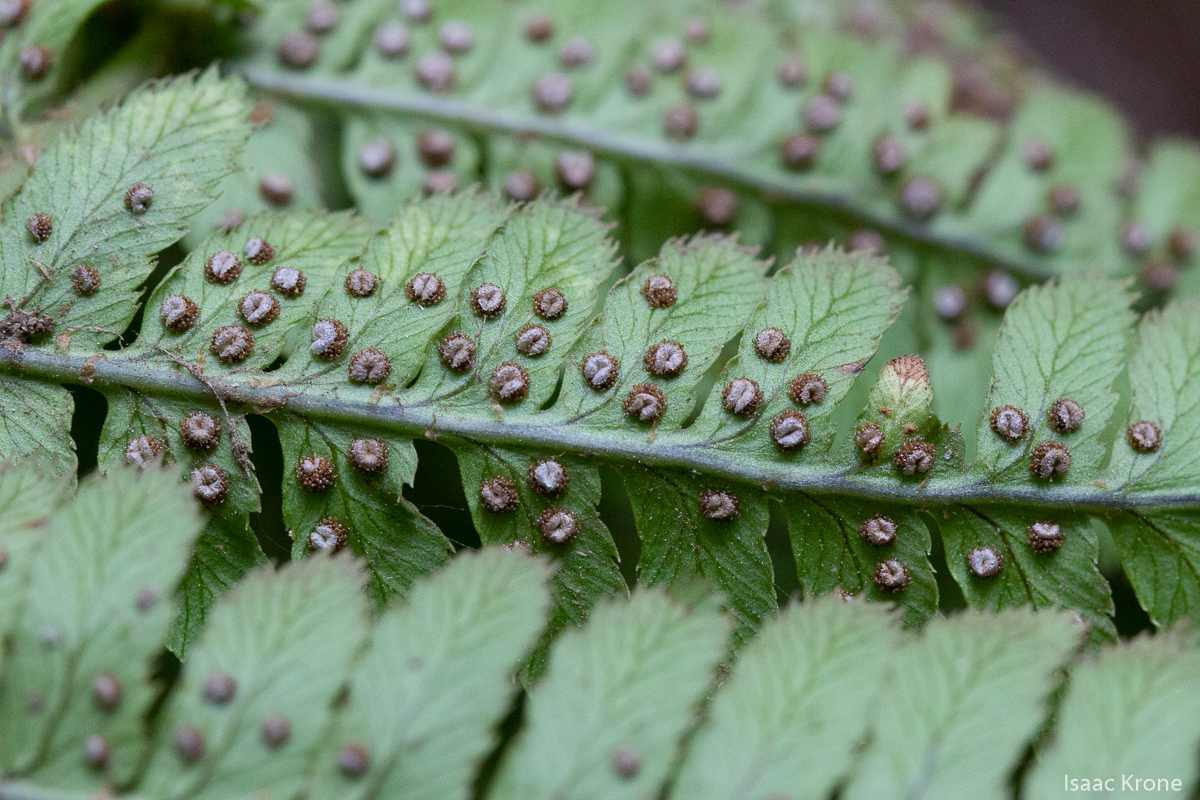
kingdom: Plantae
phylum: Tracheophyta
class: Polypodiopsida
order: Polypodiales
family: Dryopteridaceae
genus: Dryopteris
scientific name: Dryopteris arguta
